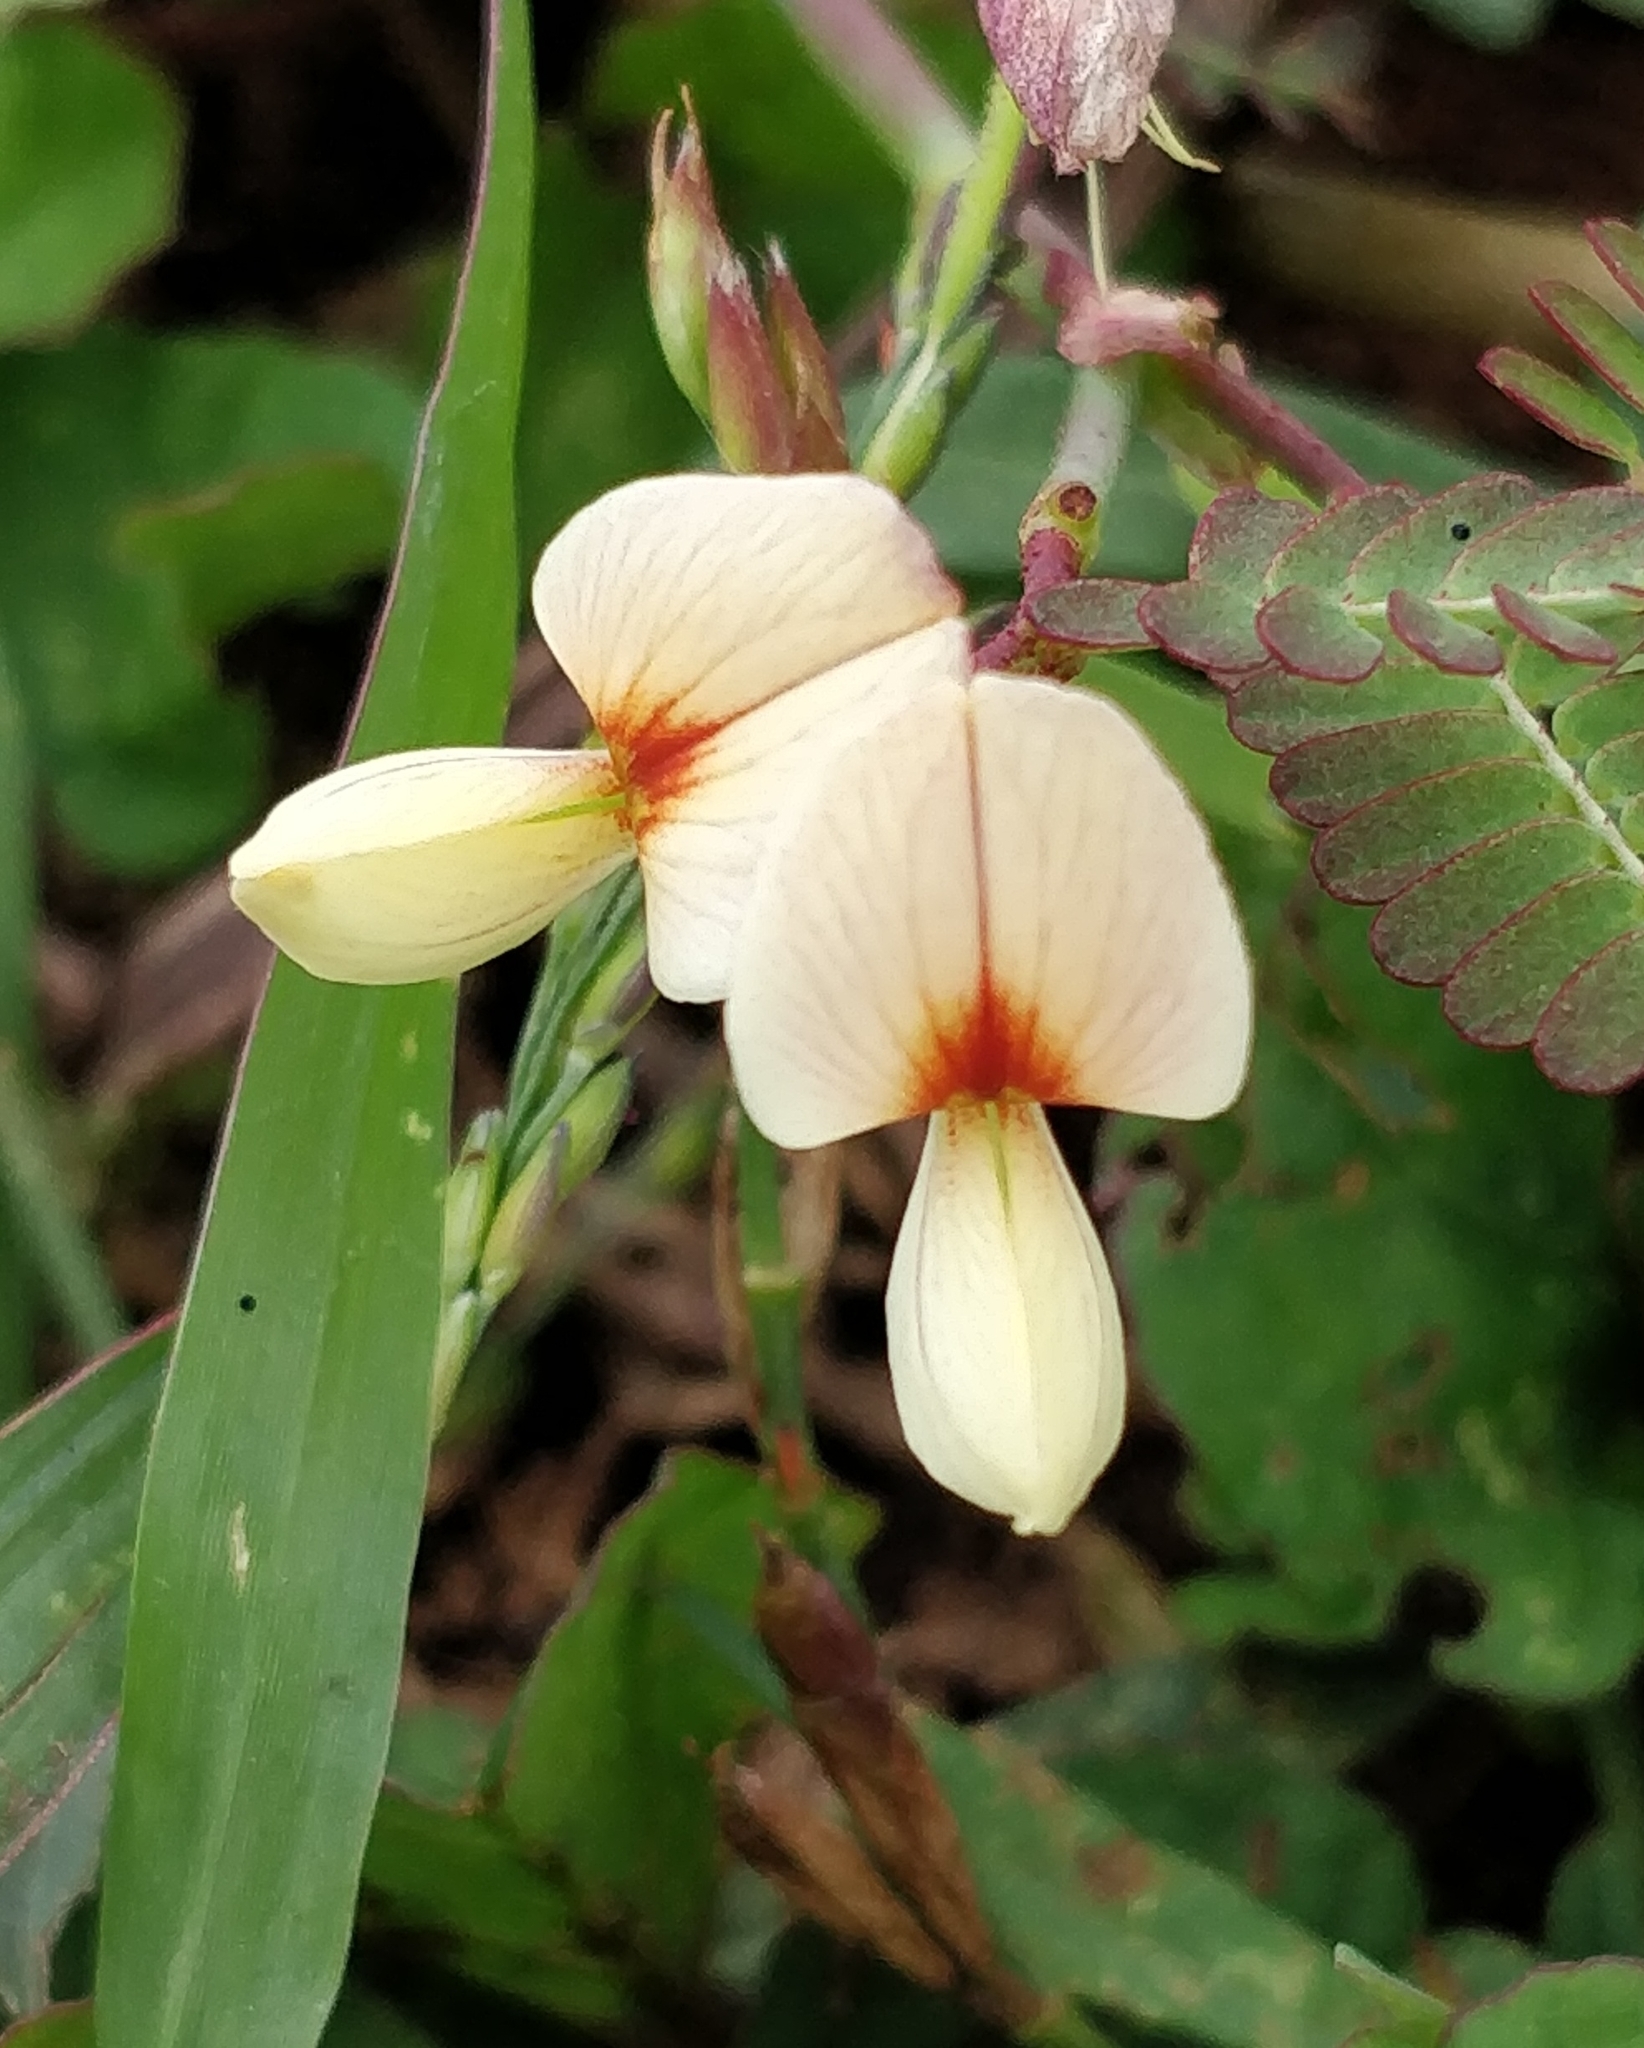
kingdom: Plantae
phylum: Tracheophyta
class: Magnoliopsida
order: Fabales
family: Fabaceae
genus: Aeschynomene
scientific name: Aeschynomene indica
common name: Indian jointvetch
